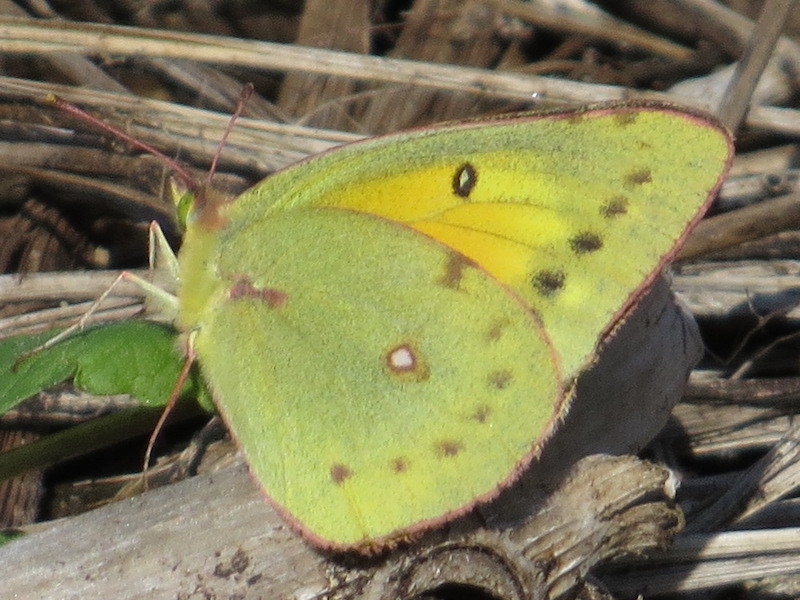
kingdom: Animalia
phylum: Arthropoda
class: Insecta
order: Lepidoptera
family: Pieridae
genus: Colias
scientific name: Colias eurytheme
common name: Alfalfa butterfly
